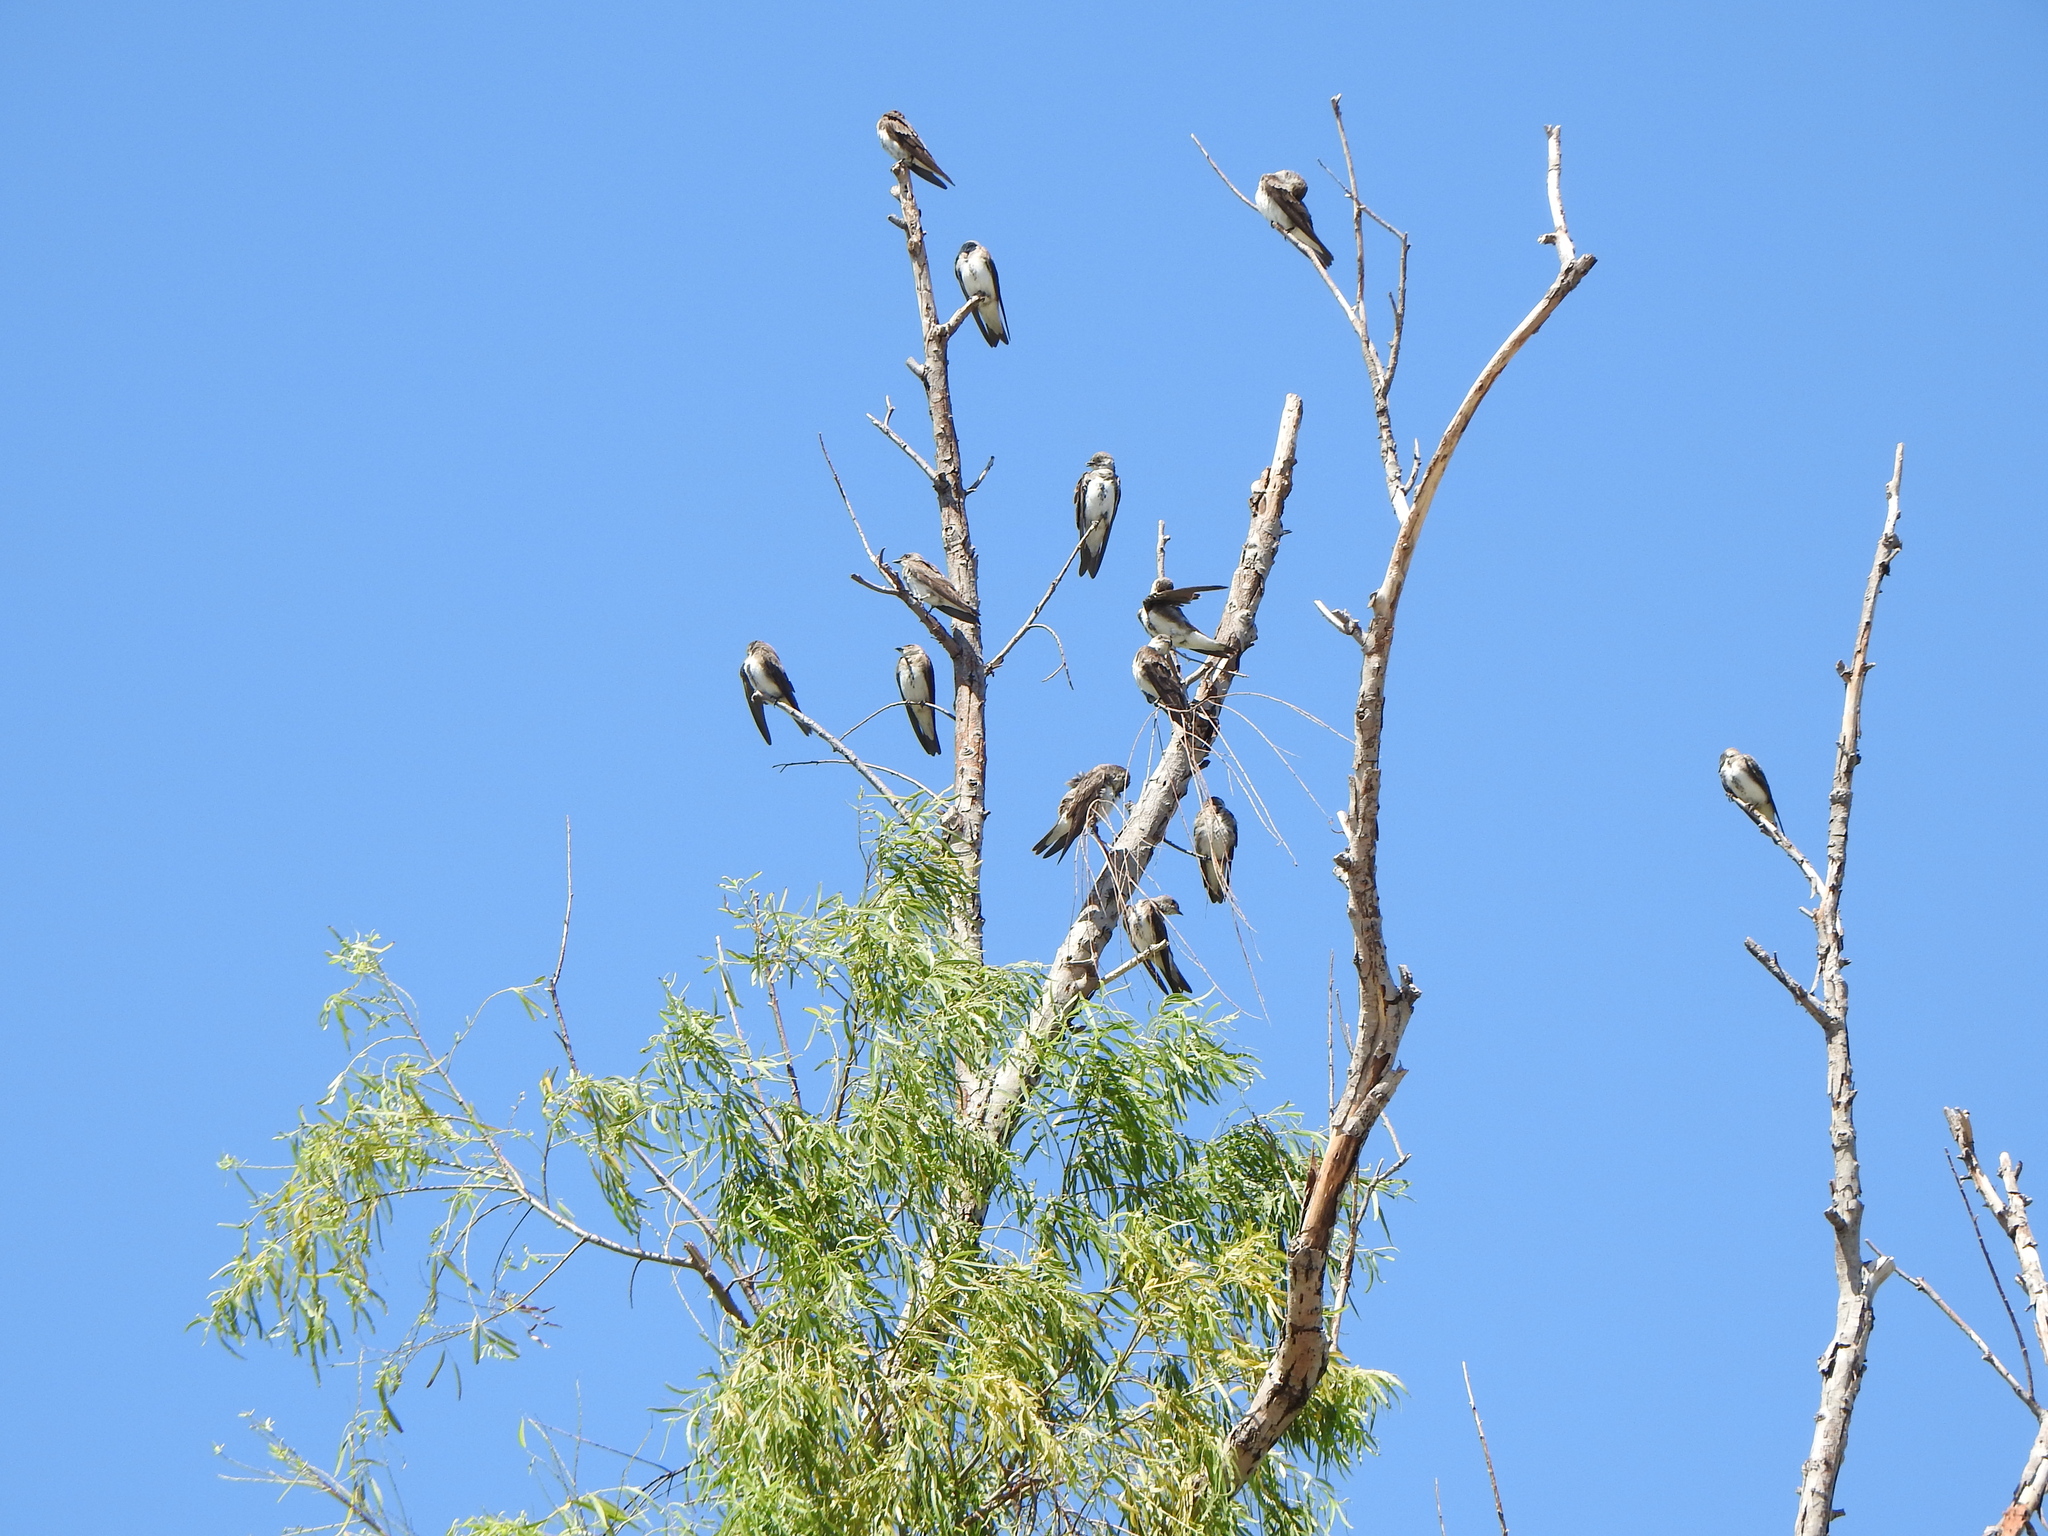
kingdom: Animalia
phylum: Chordata
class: Aves
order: Passeriformes
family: Hirundinidae
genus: Progne
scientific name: Progne tapera
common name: Brown-chested martin
